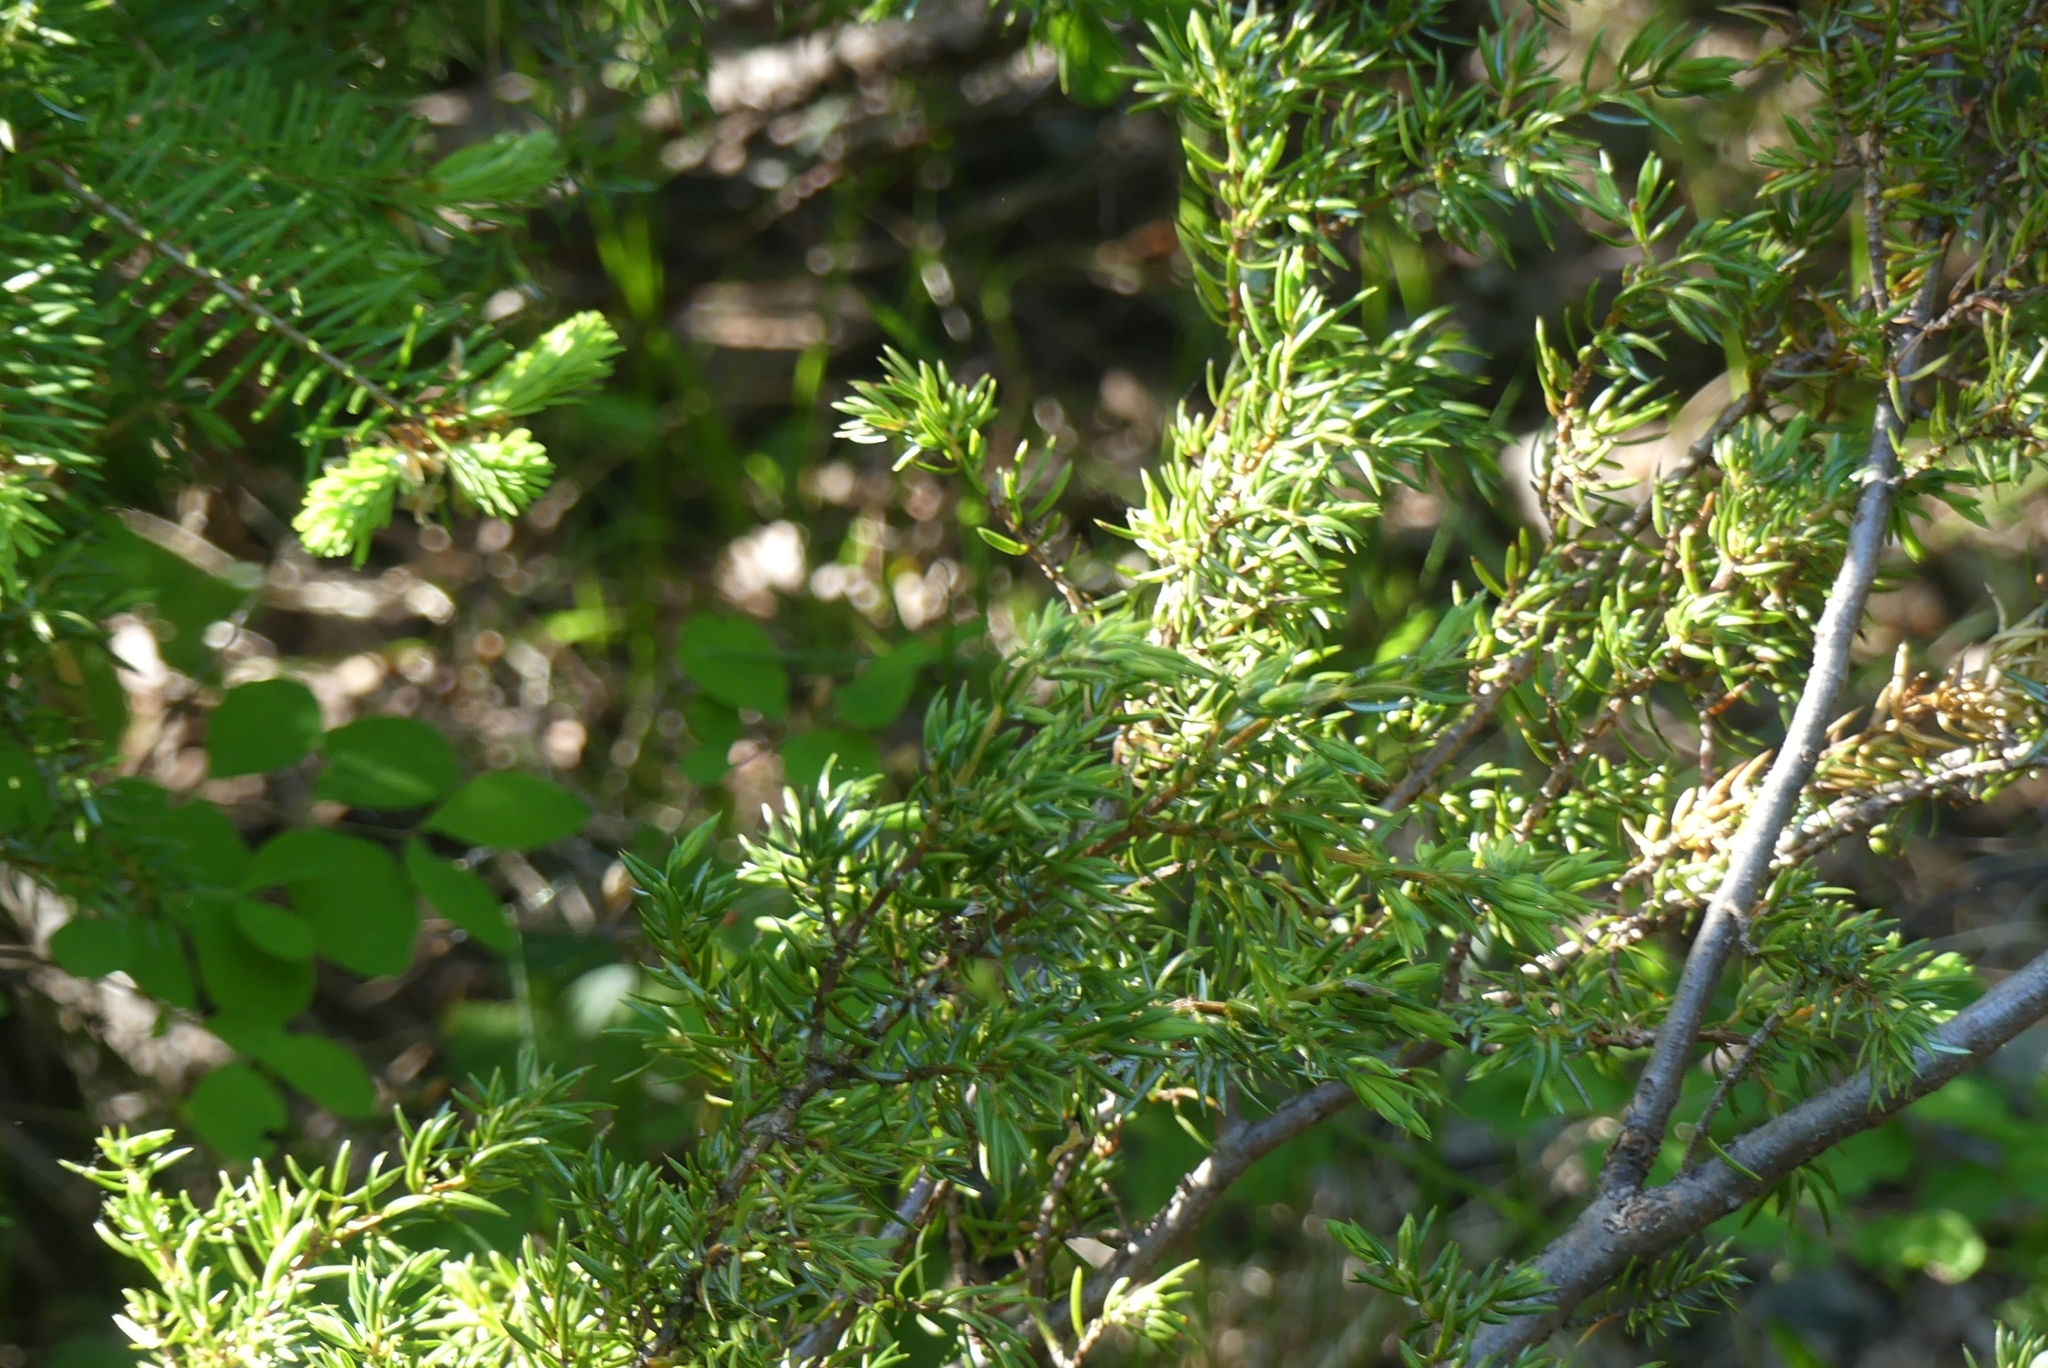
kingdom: Plantae
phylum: Tracheophyta
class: Pinopsida
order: Pinales
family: Cupressaceae
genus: Juniperus
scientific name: Juniperus communis
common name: Common juniper
